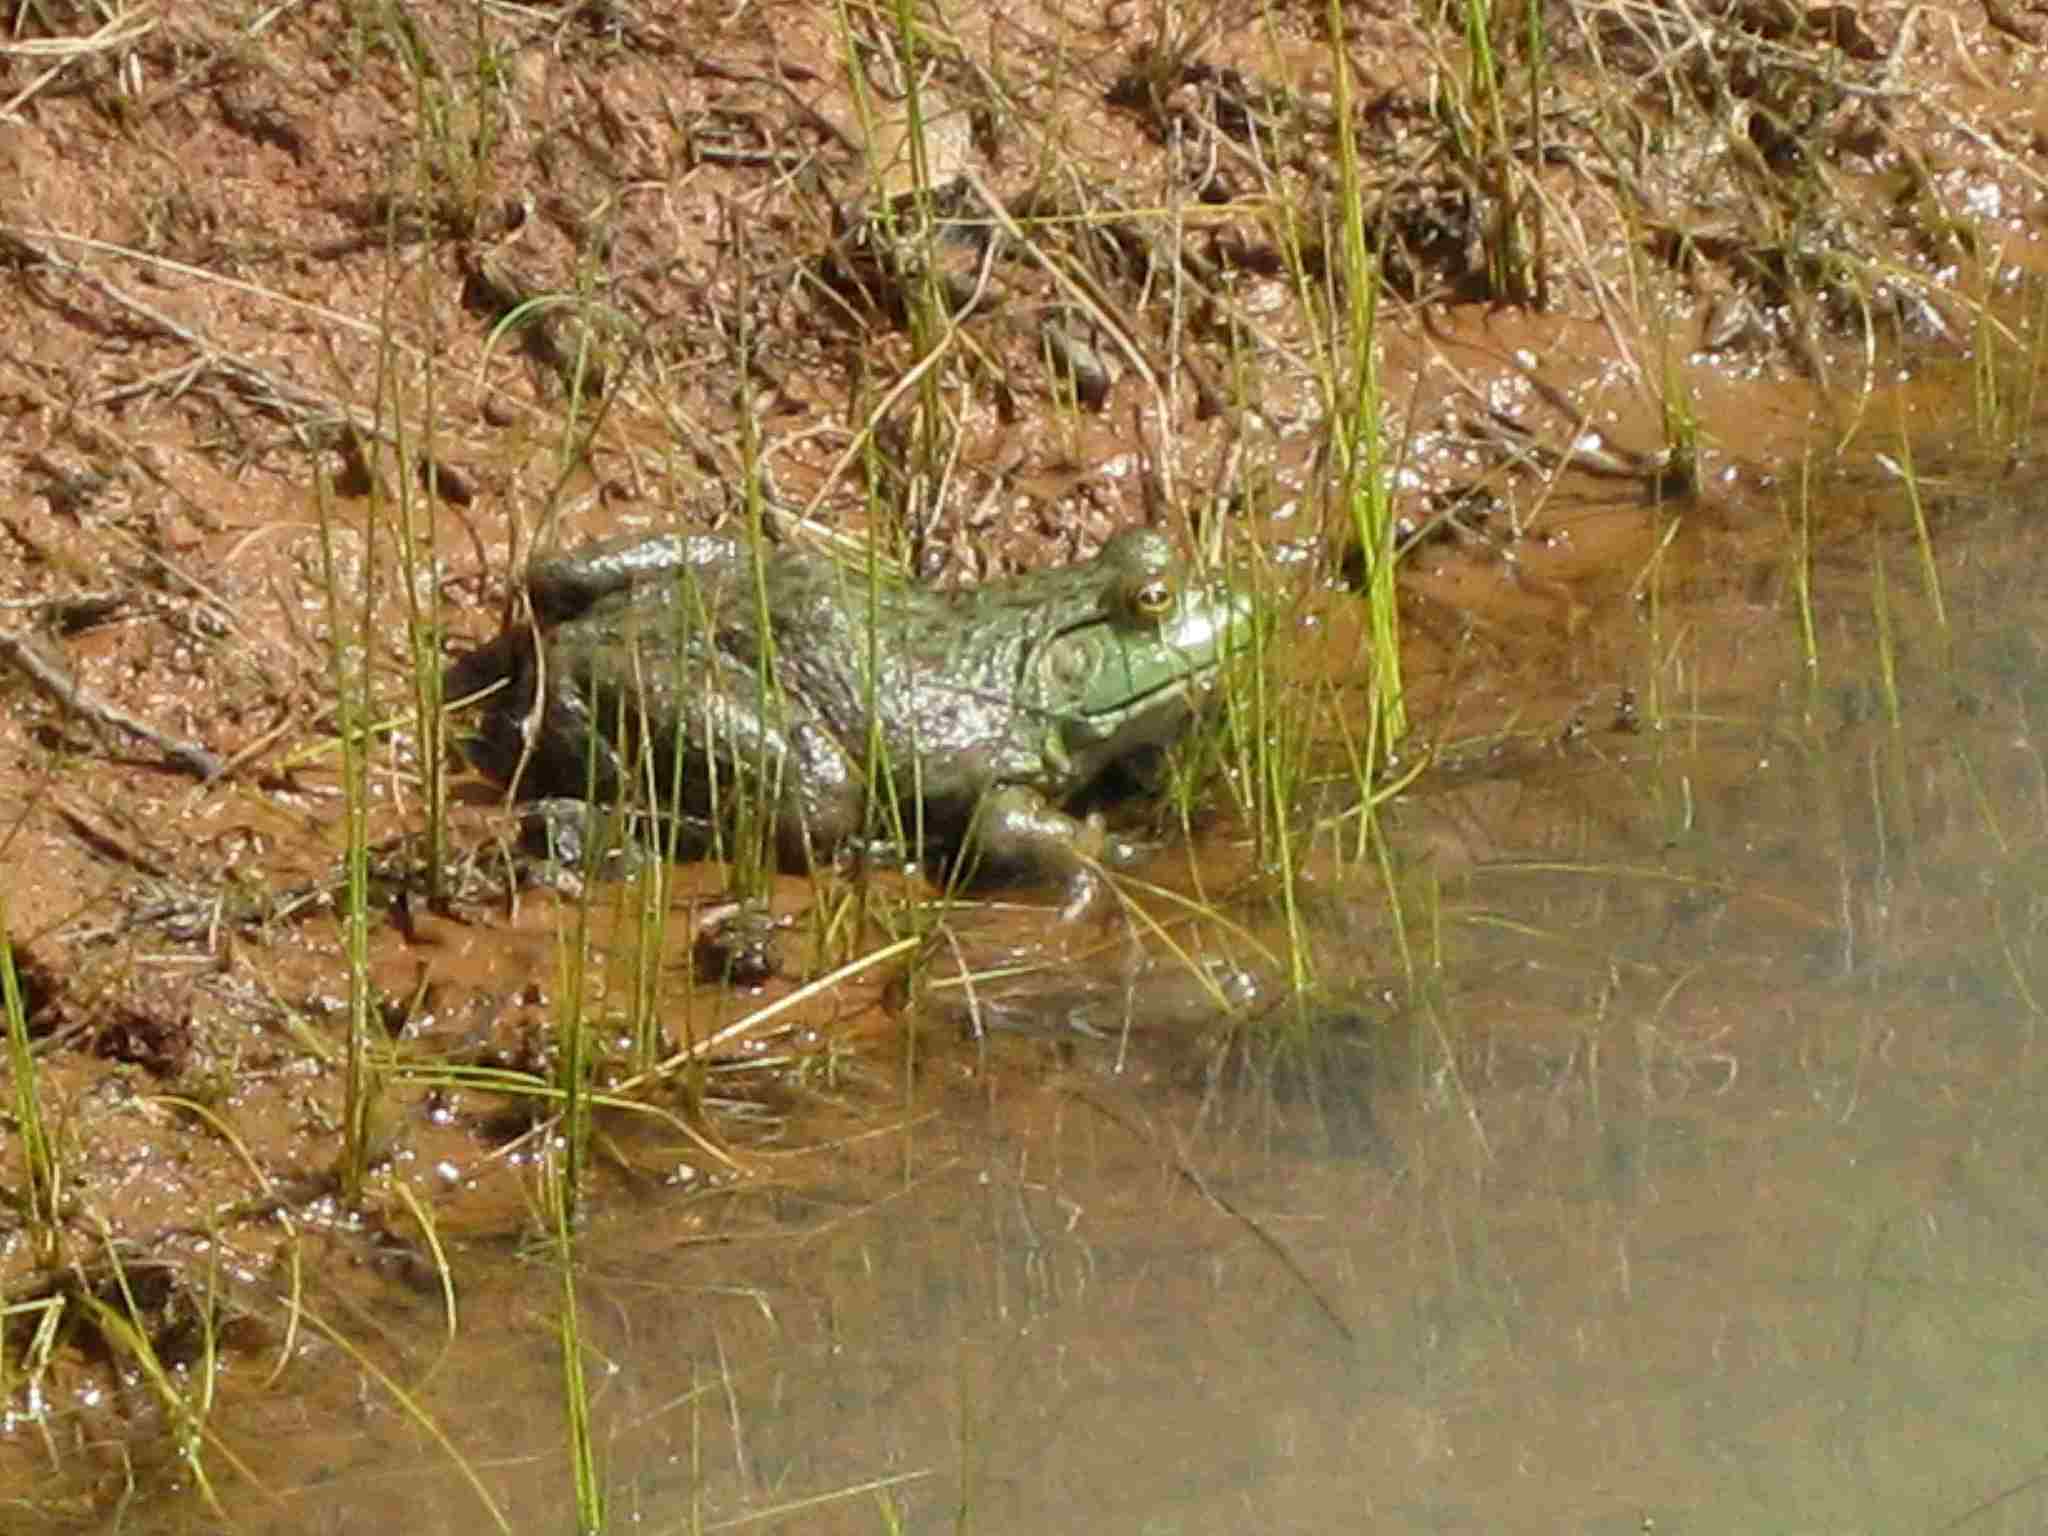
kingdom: Animalia
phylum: Chordata
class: Amphibia
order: Anura
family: Ranidae
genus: Lithobates
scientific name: Lithobates catesbeianus
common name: American bullfrog
